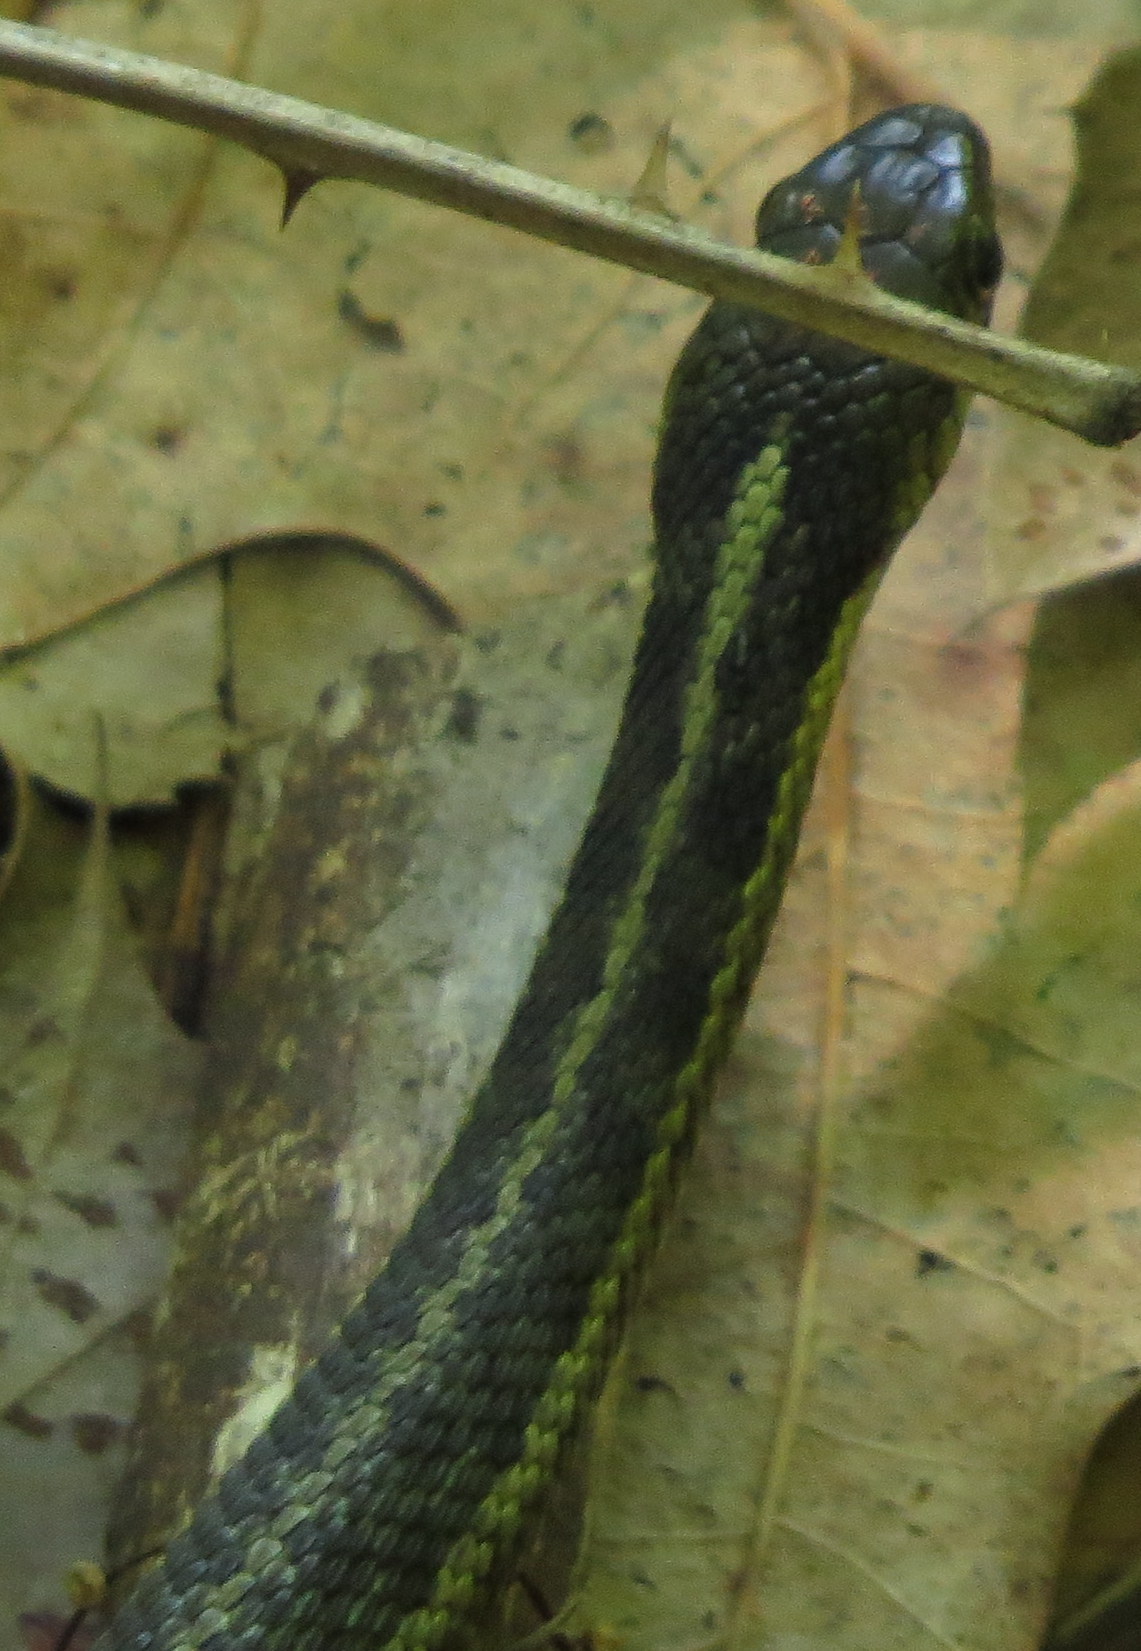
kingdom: Animalia
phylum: Chordata
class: Squamata
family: Colubridae
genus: Thamnophis
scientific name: Thamnophis sirtalis
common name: Common garter snake
